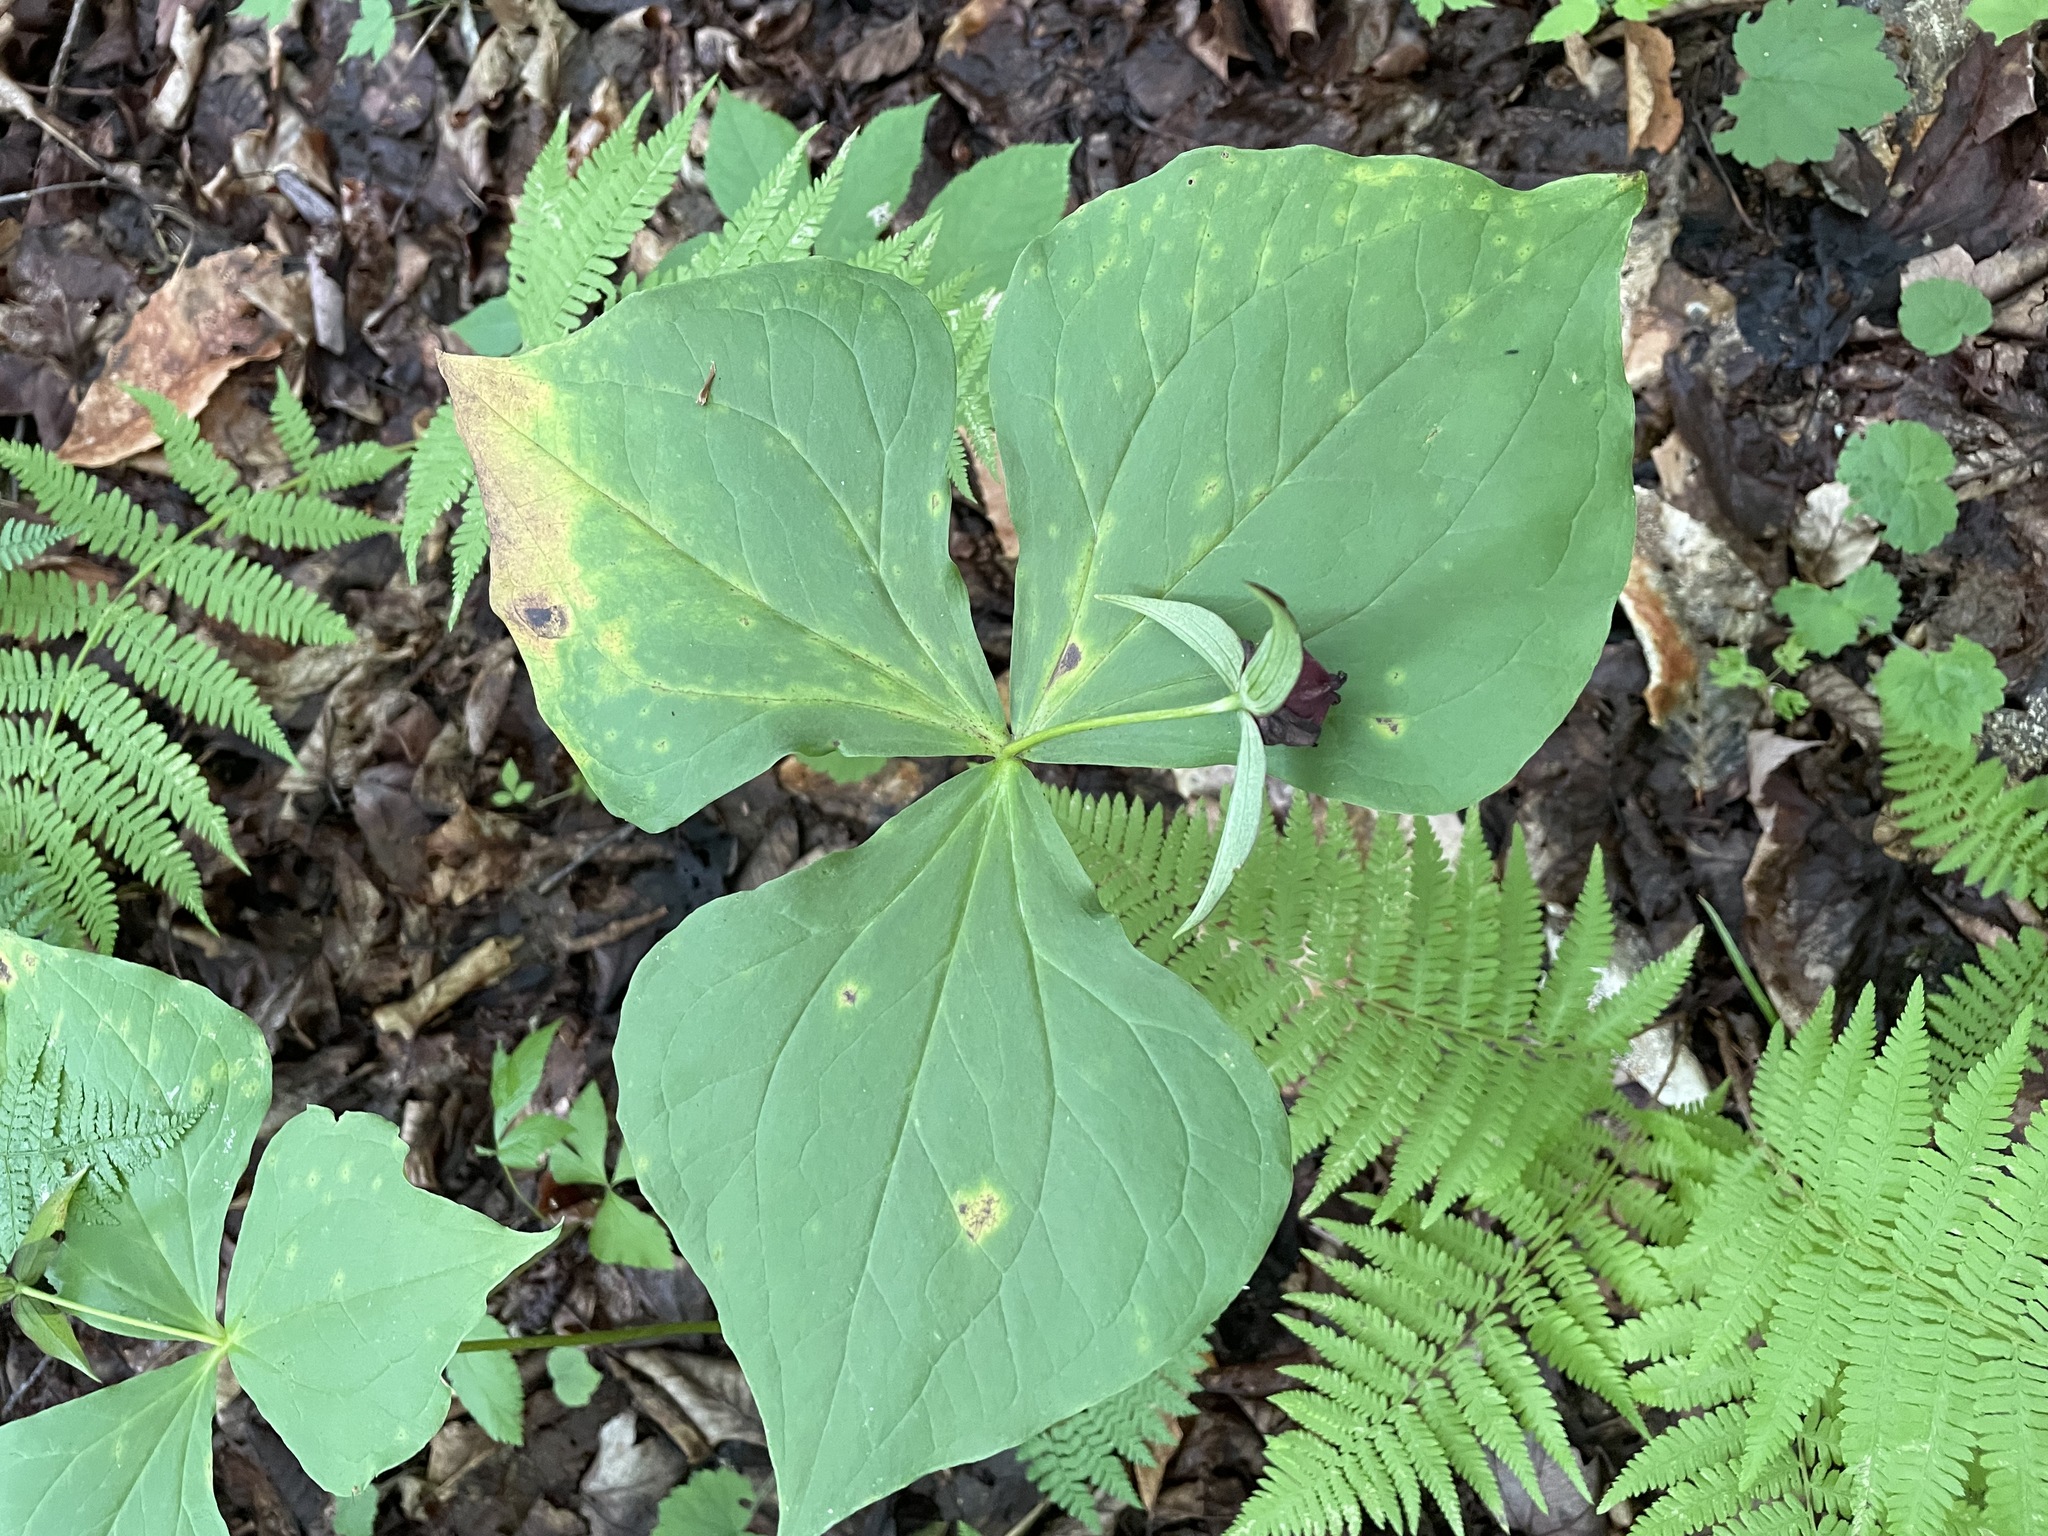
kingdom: Plantae
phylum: Tracheophyta
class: Liliopsida
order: Liliales
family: Melanthiaceae
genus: Trillium
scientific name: Trillium erectum
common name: Purple trillium
